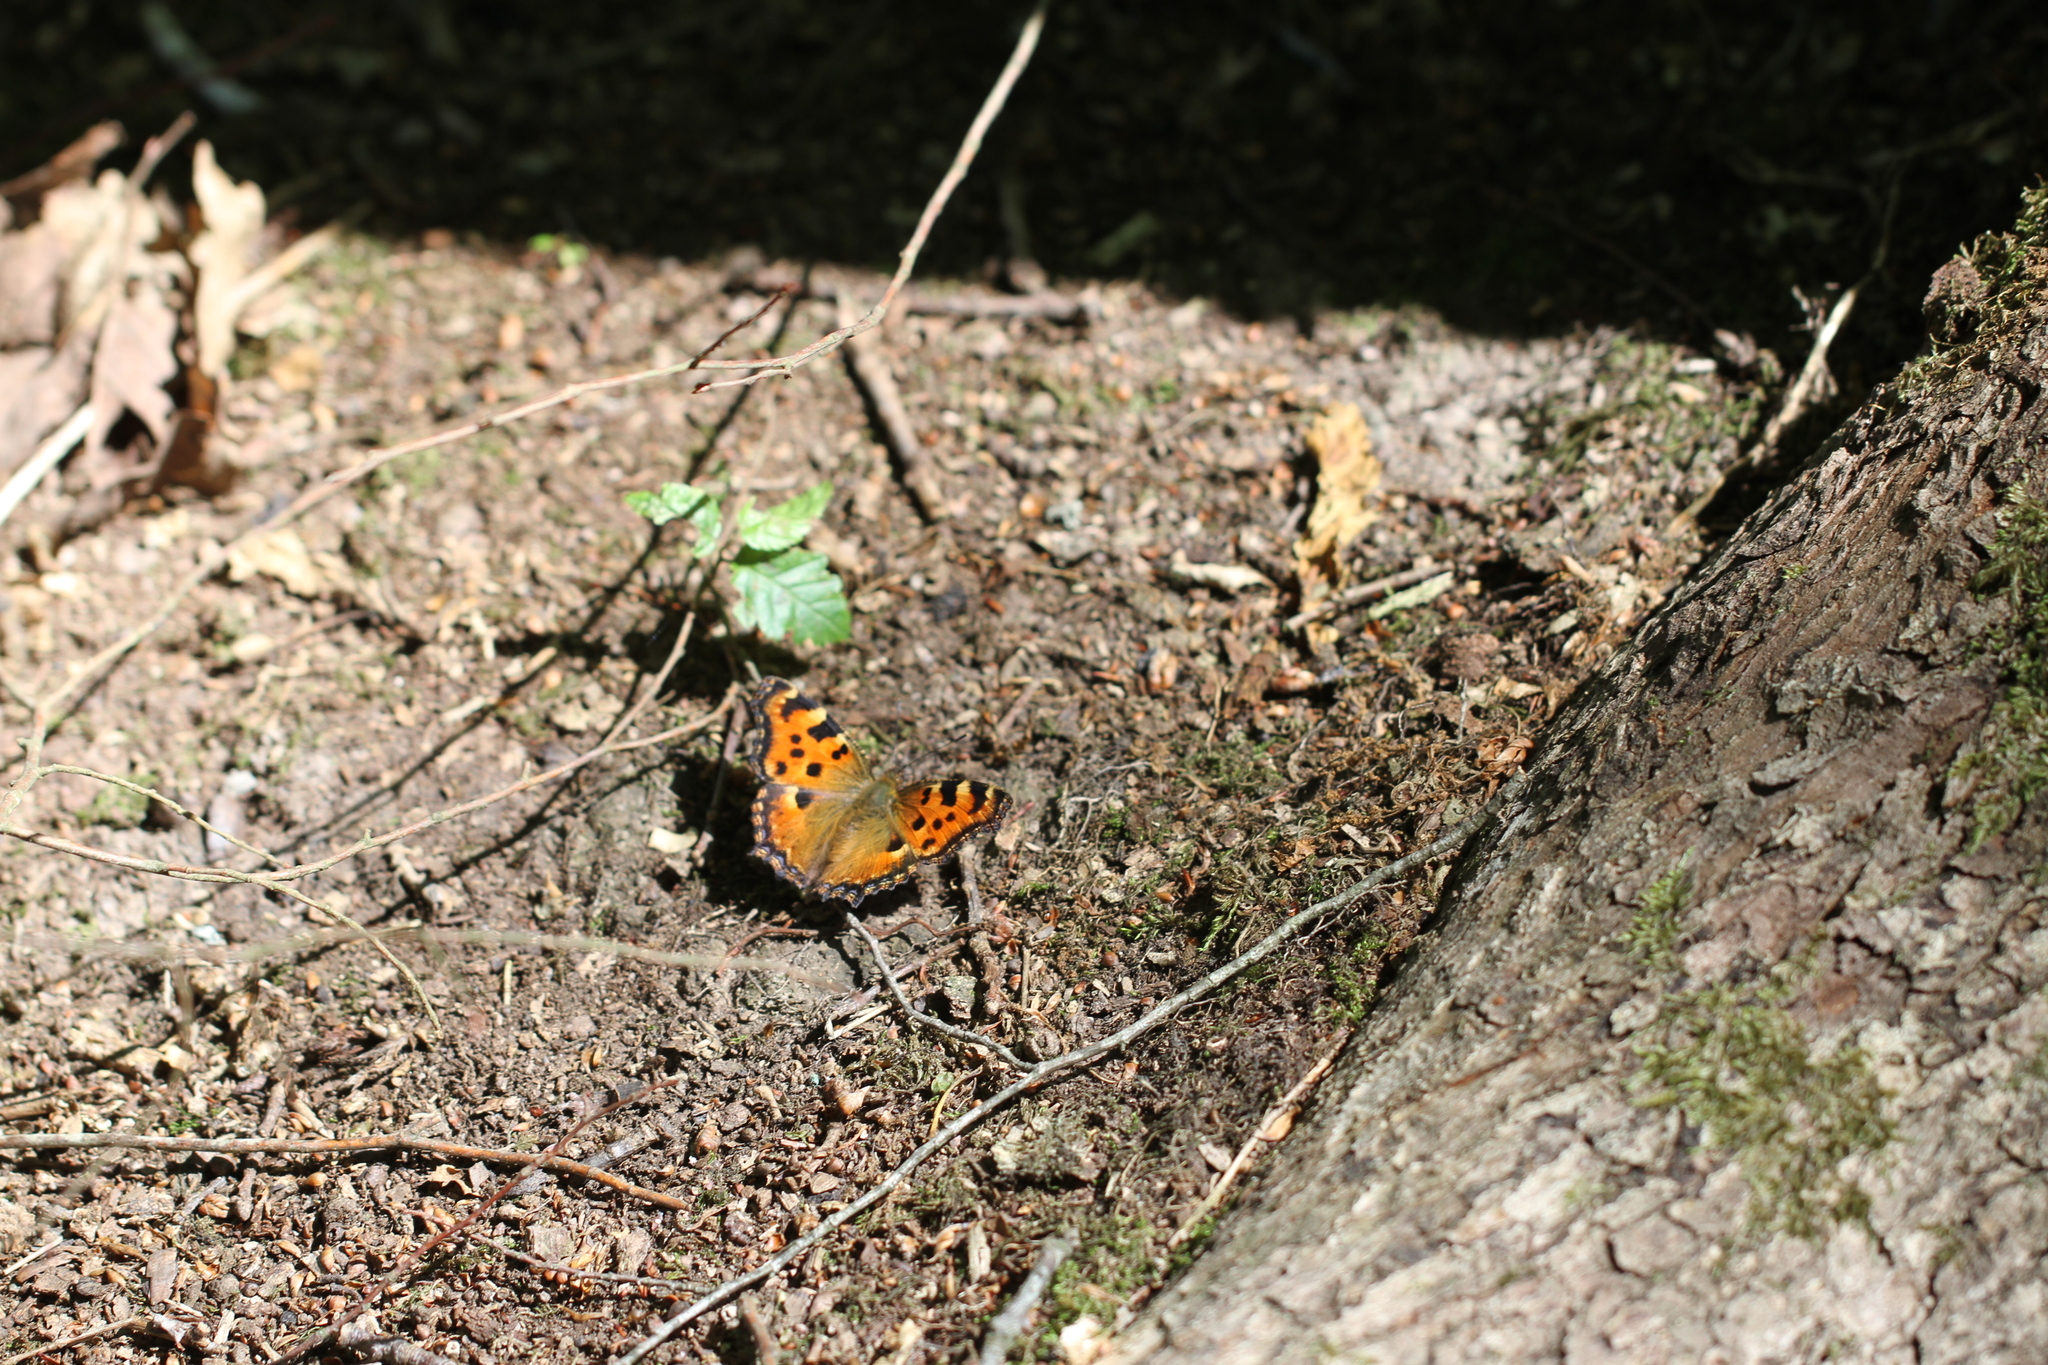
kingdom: Animalia
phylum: Arthropoda
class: Insecta
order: Lepidoptera
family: Nymphalidae
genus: Nymphalis
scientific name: Nymphalis polychloros
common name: Large tortoiseshell
